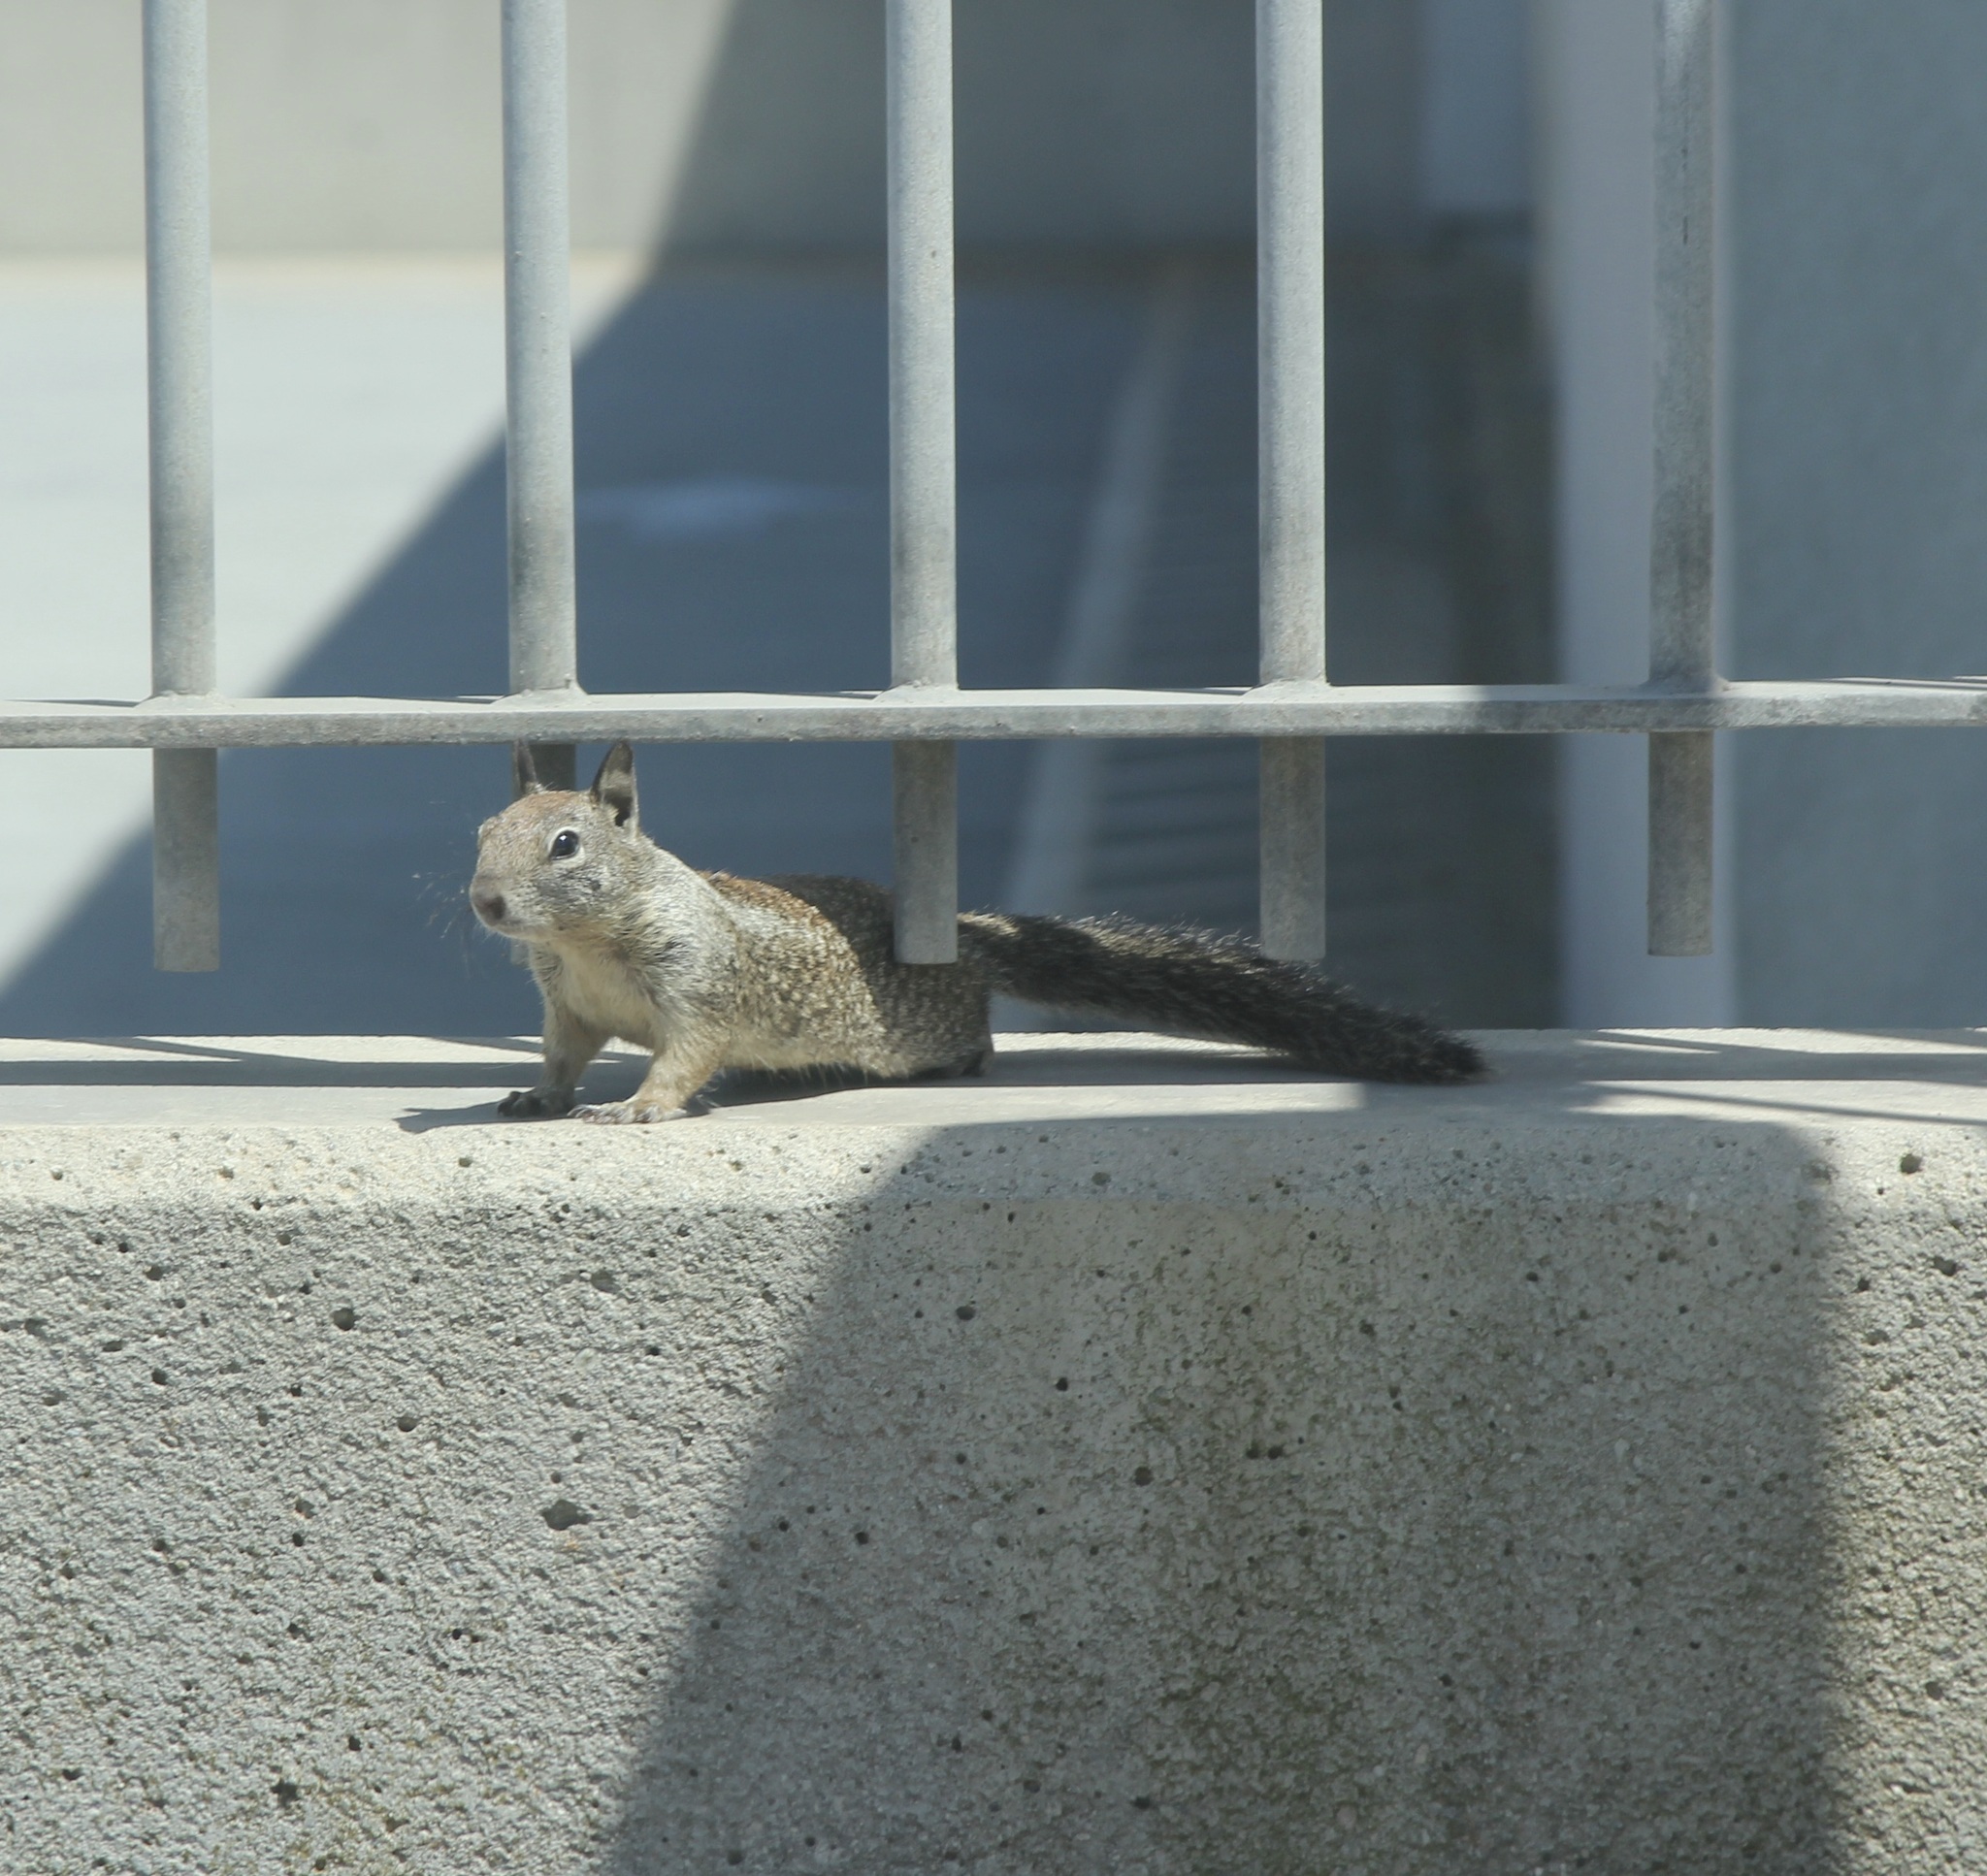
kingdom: Animalia
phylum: Chordata
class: Mammalia
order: Rodentia
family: Sciuridae
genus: Otospermophilus
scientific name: Otospermophilus beecheyi
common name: California ground squirrel
